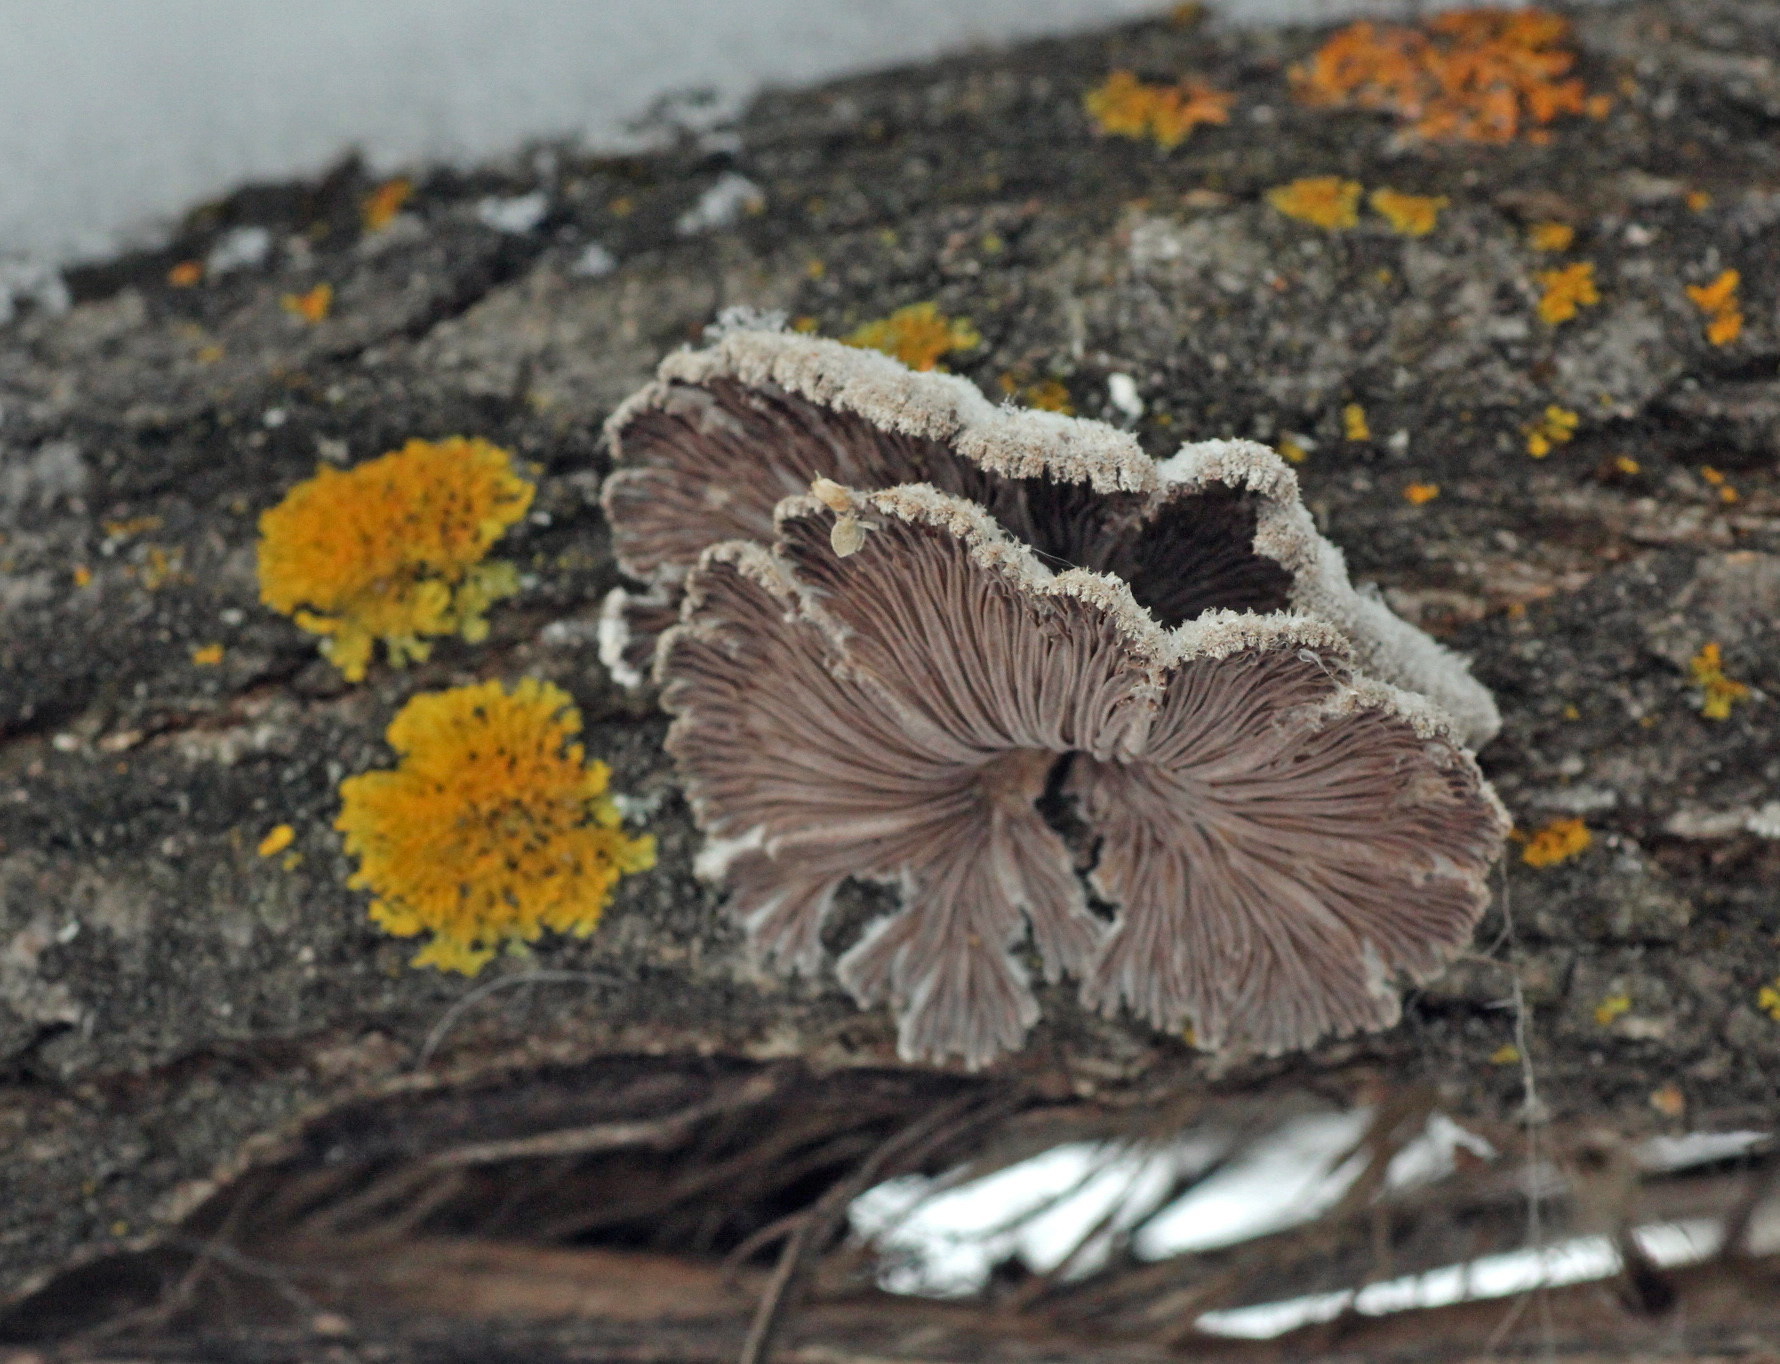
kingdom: Fungi
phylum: Basidiomycota
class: Agaricomycetes
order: Agaricales
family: Schizophyllaceae
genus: Schizophyllum
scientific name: Schizophyllum commune
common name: Common porecrust
